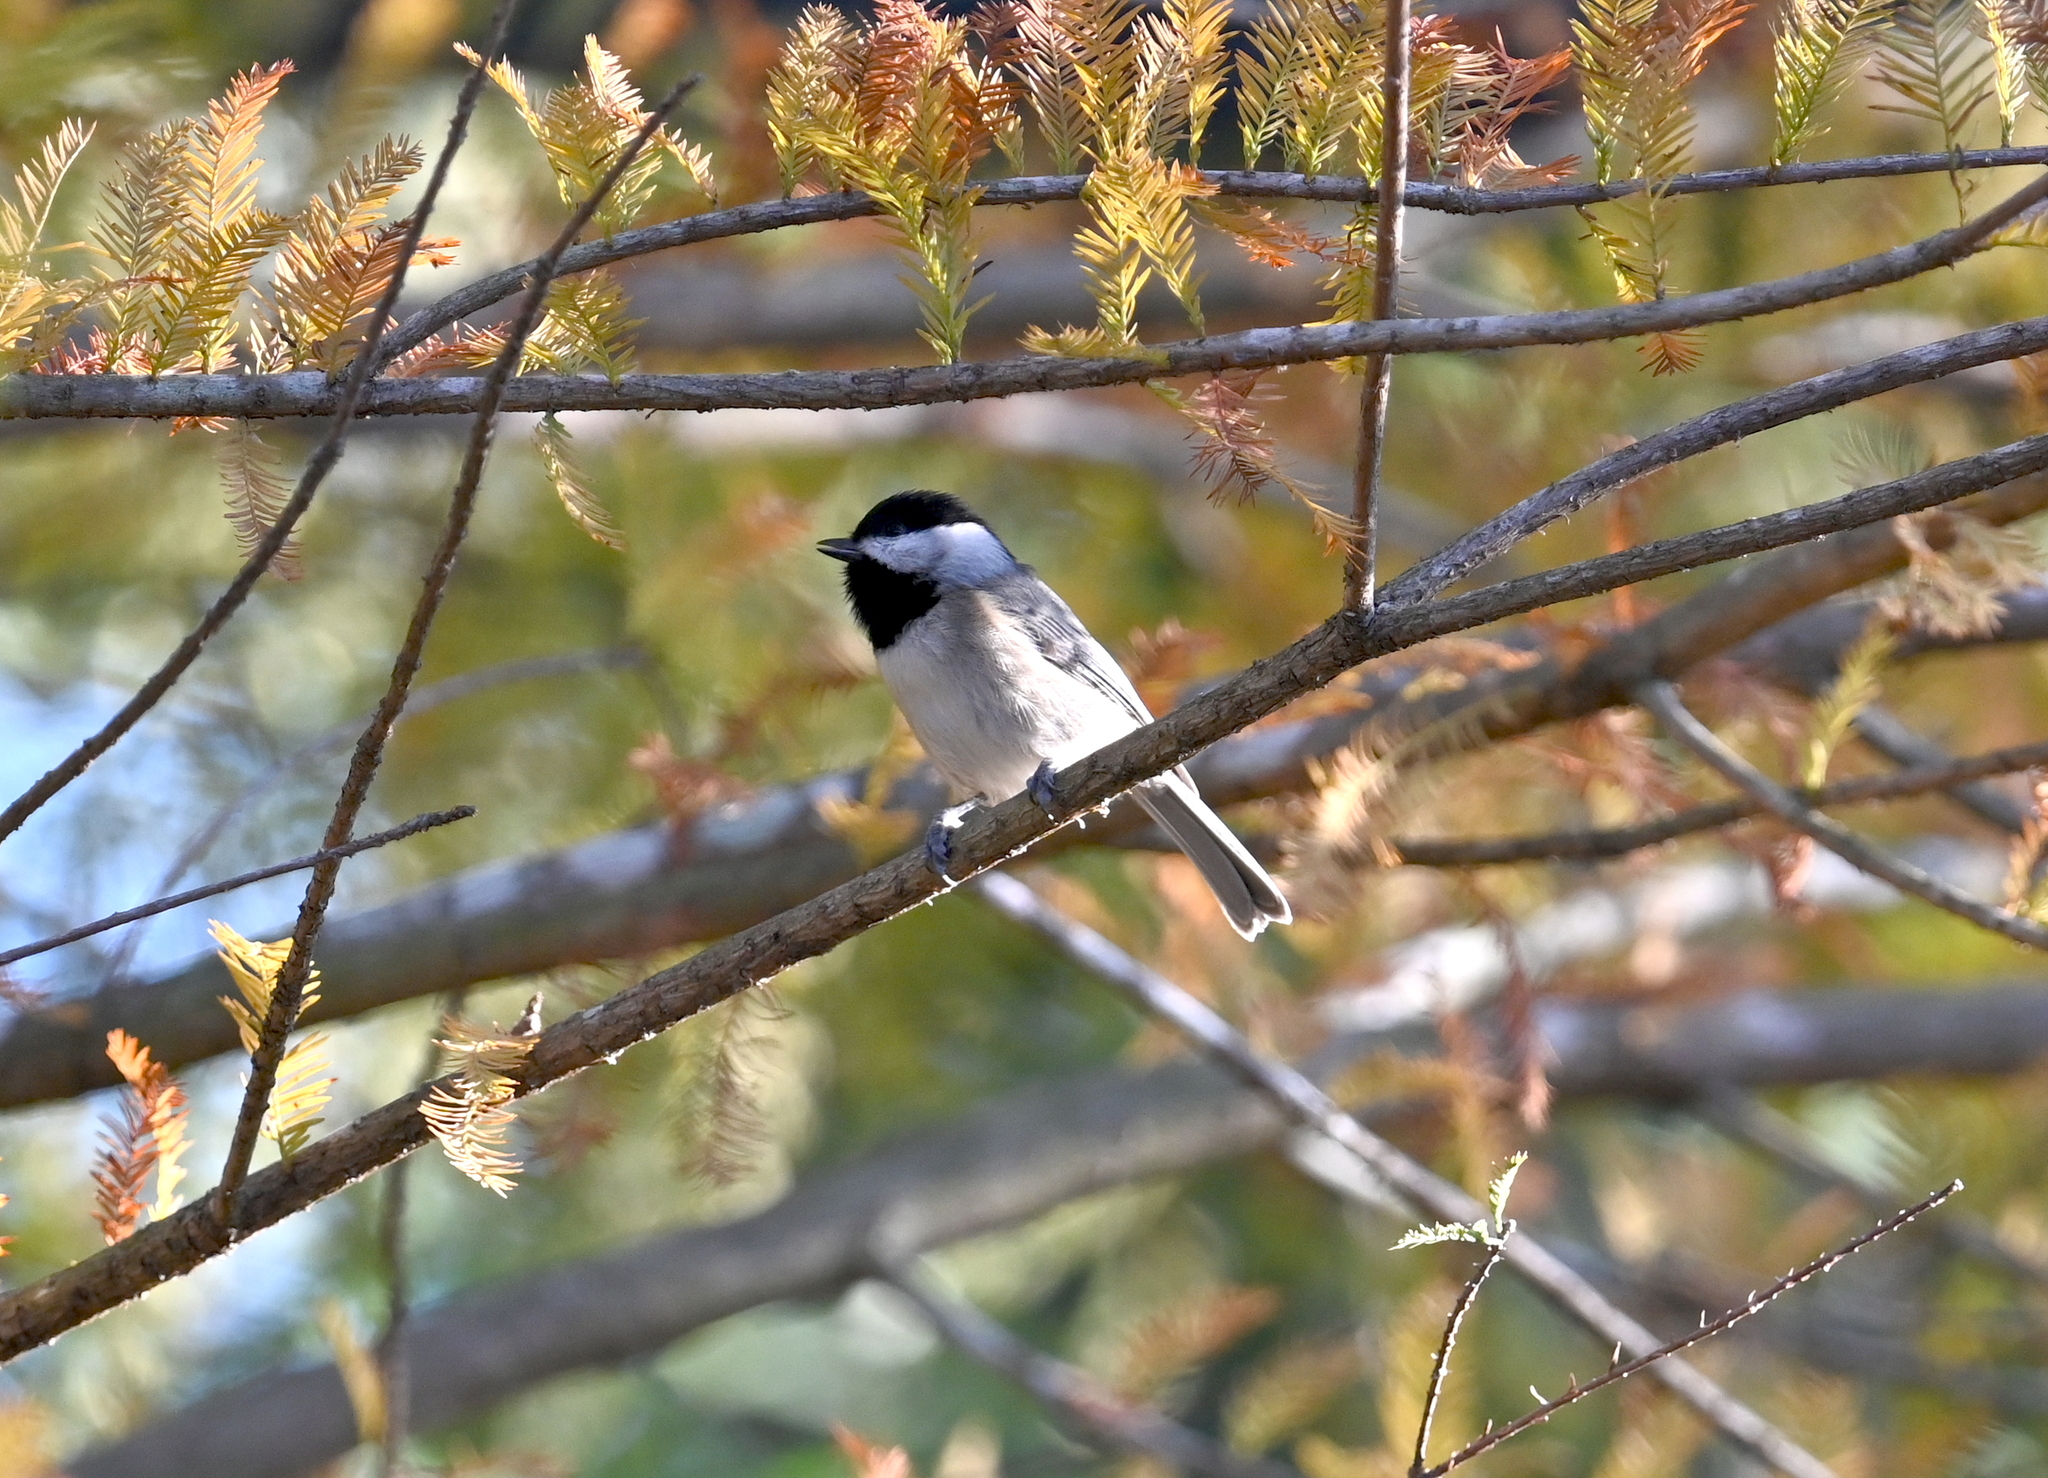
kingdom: Animalia
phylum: Chordata
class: Aves
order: Passeriformes
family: Paridae
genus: Poecile
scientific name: Poecile carolinensis
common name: Carolina chickadee
